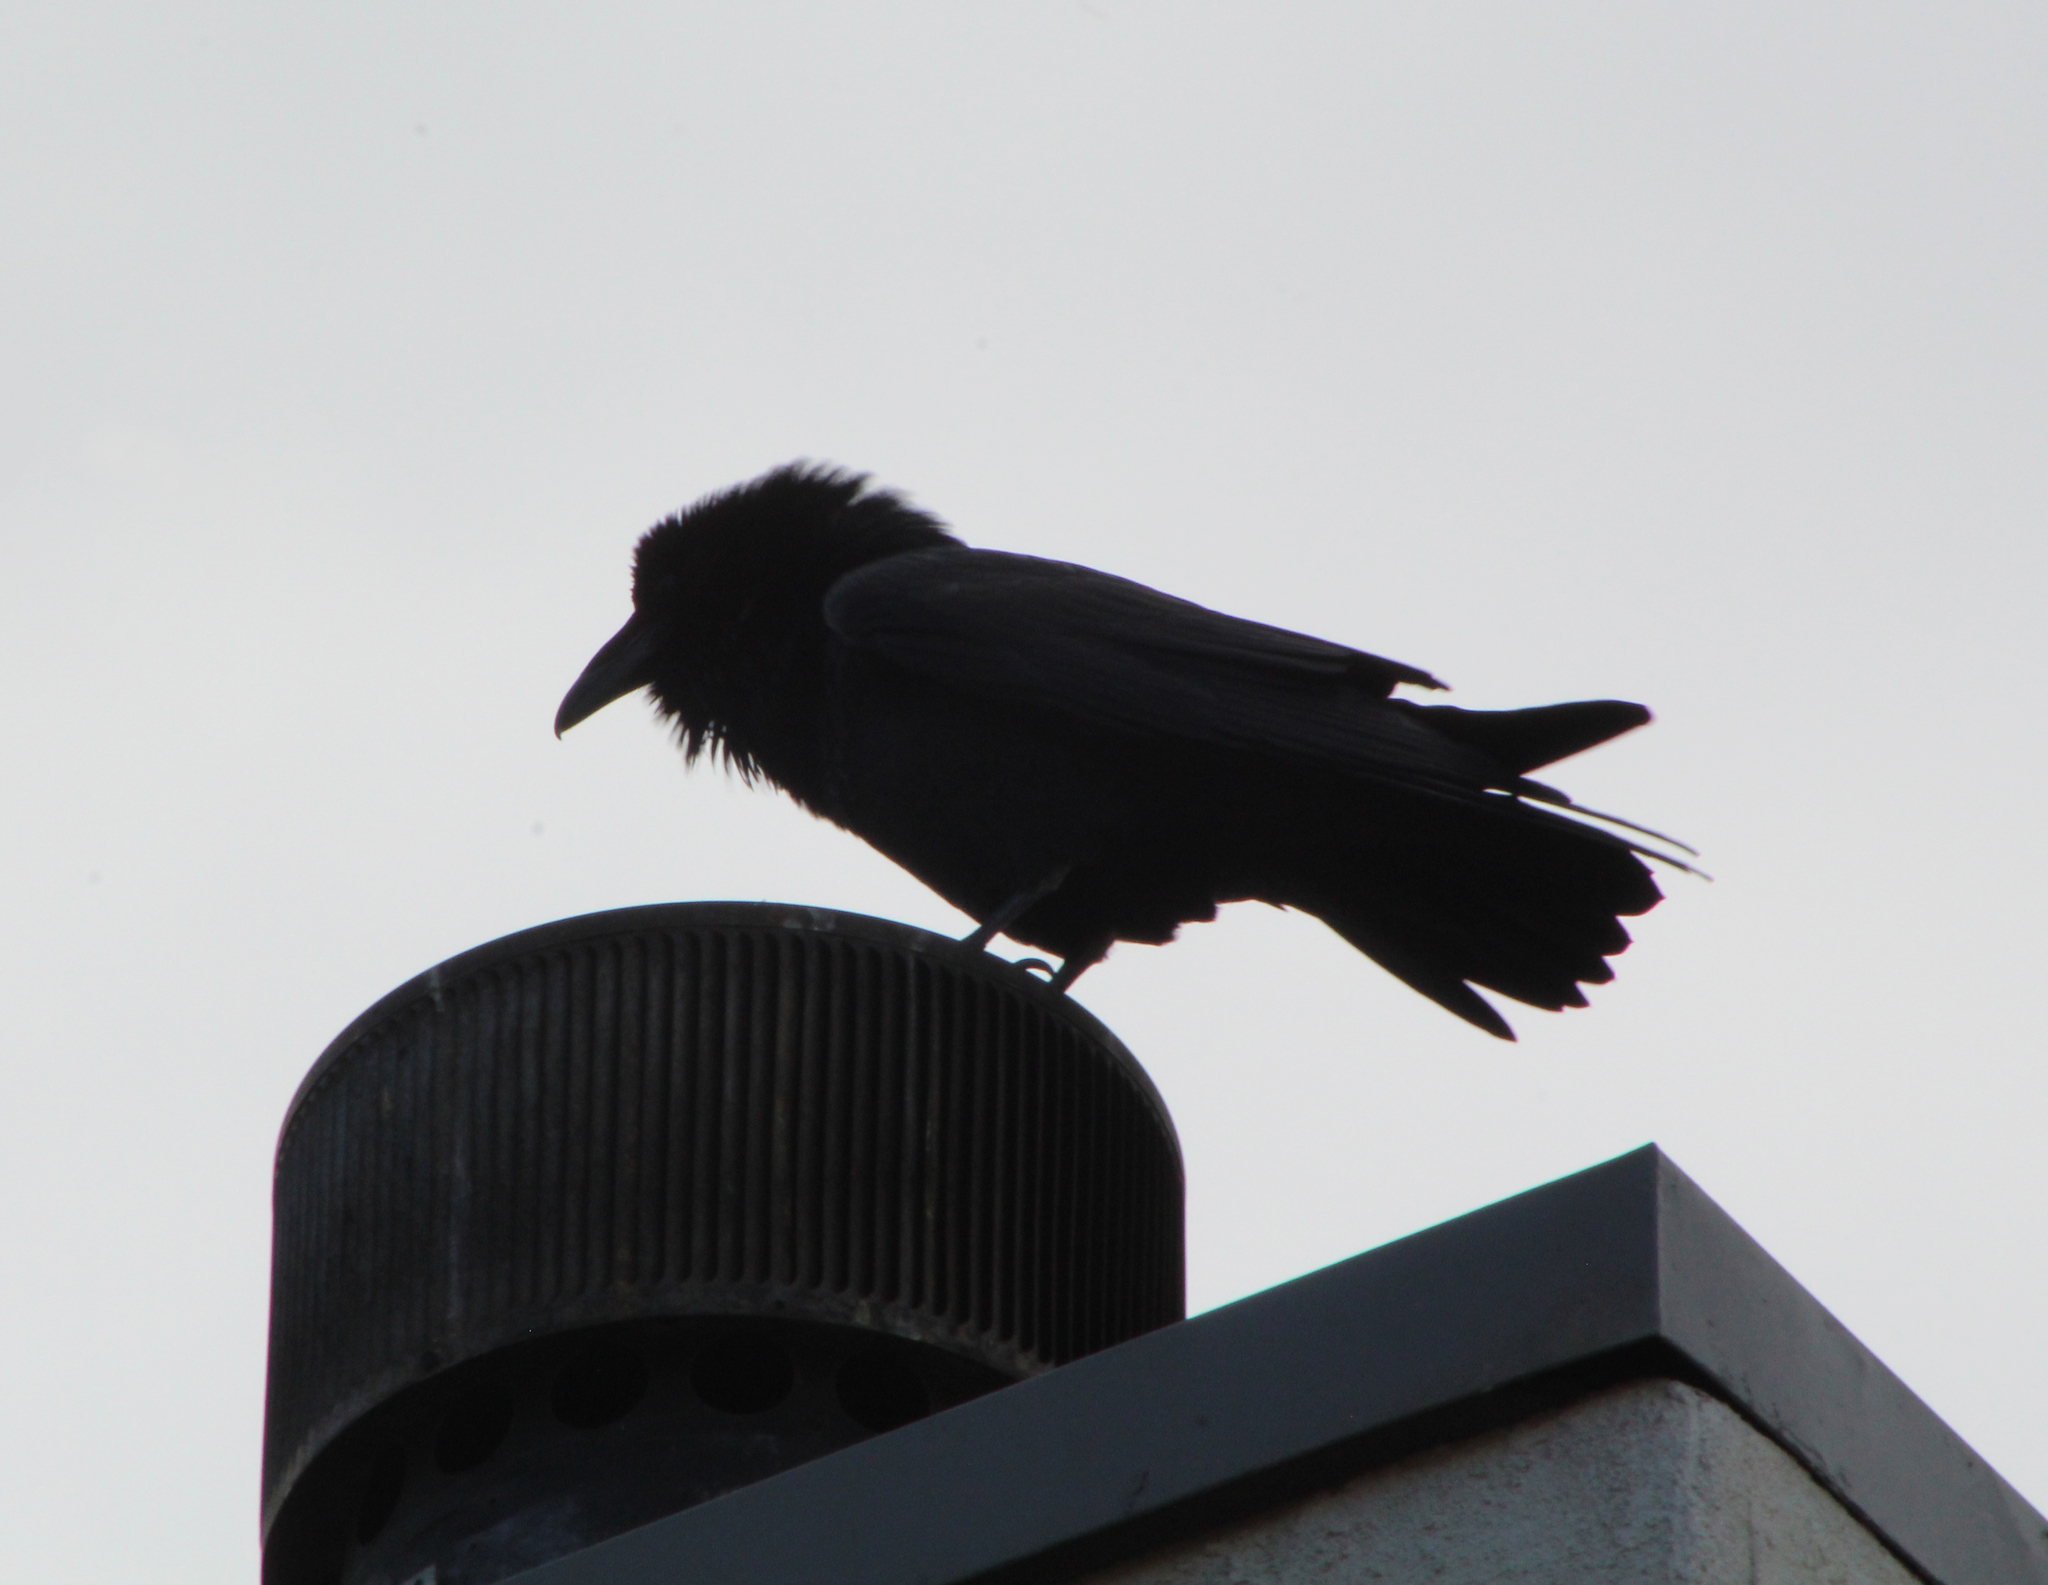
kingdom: Animalia
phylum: Chordata
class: Aves
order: Passeriformes
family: Corvidae
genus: Corvus
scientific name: Corvus corax
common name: Common raven
